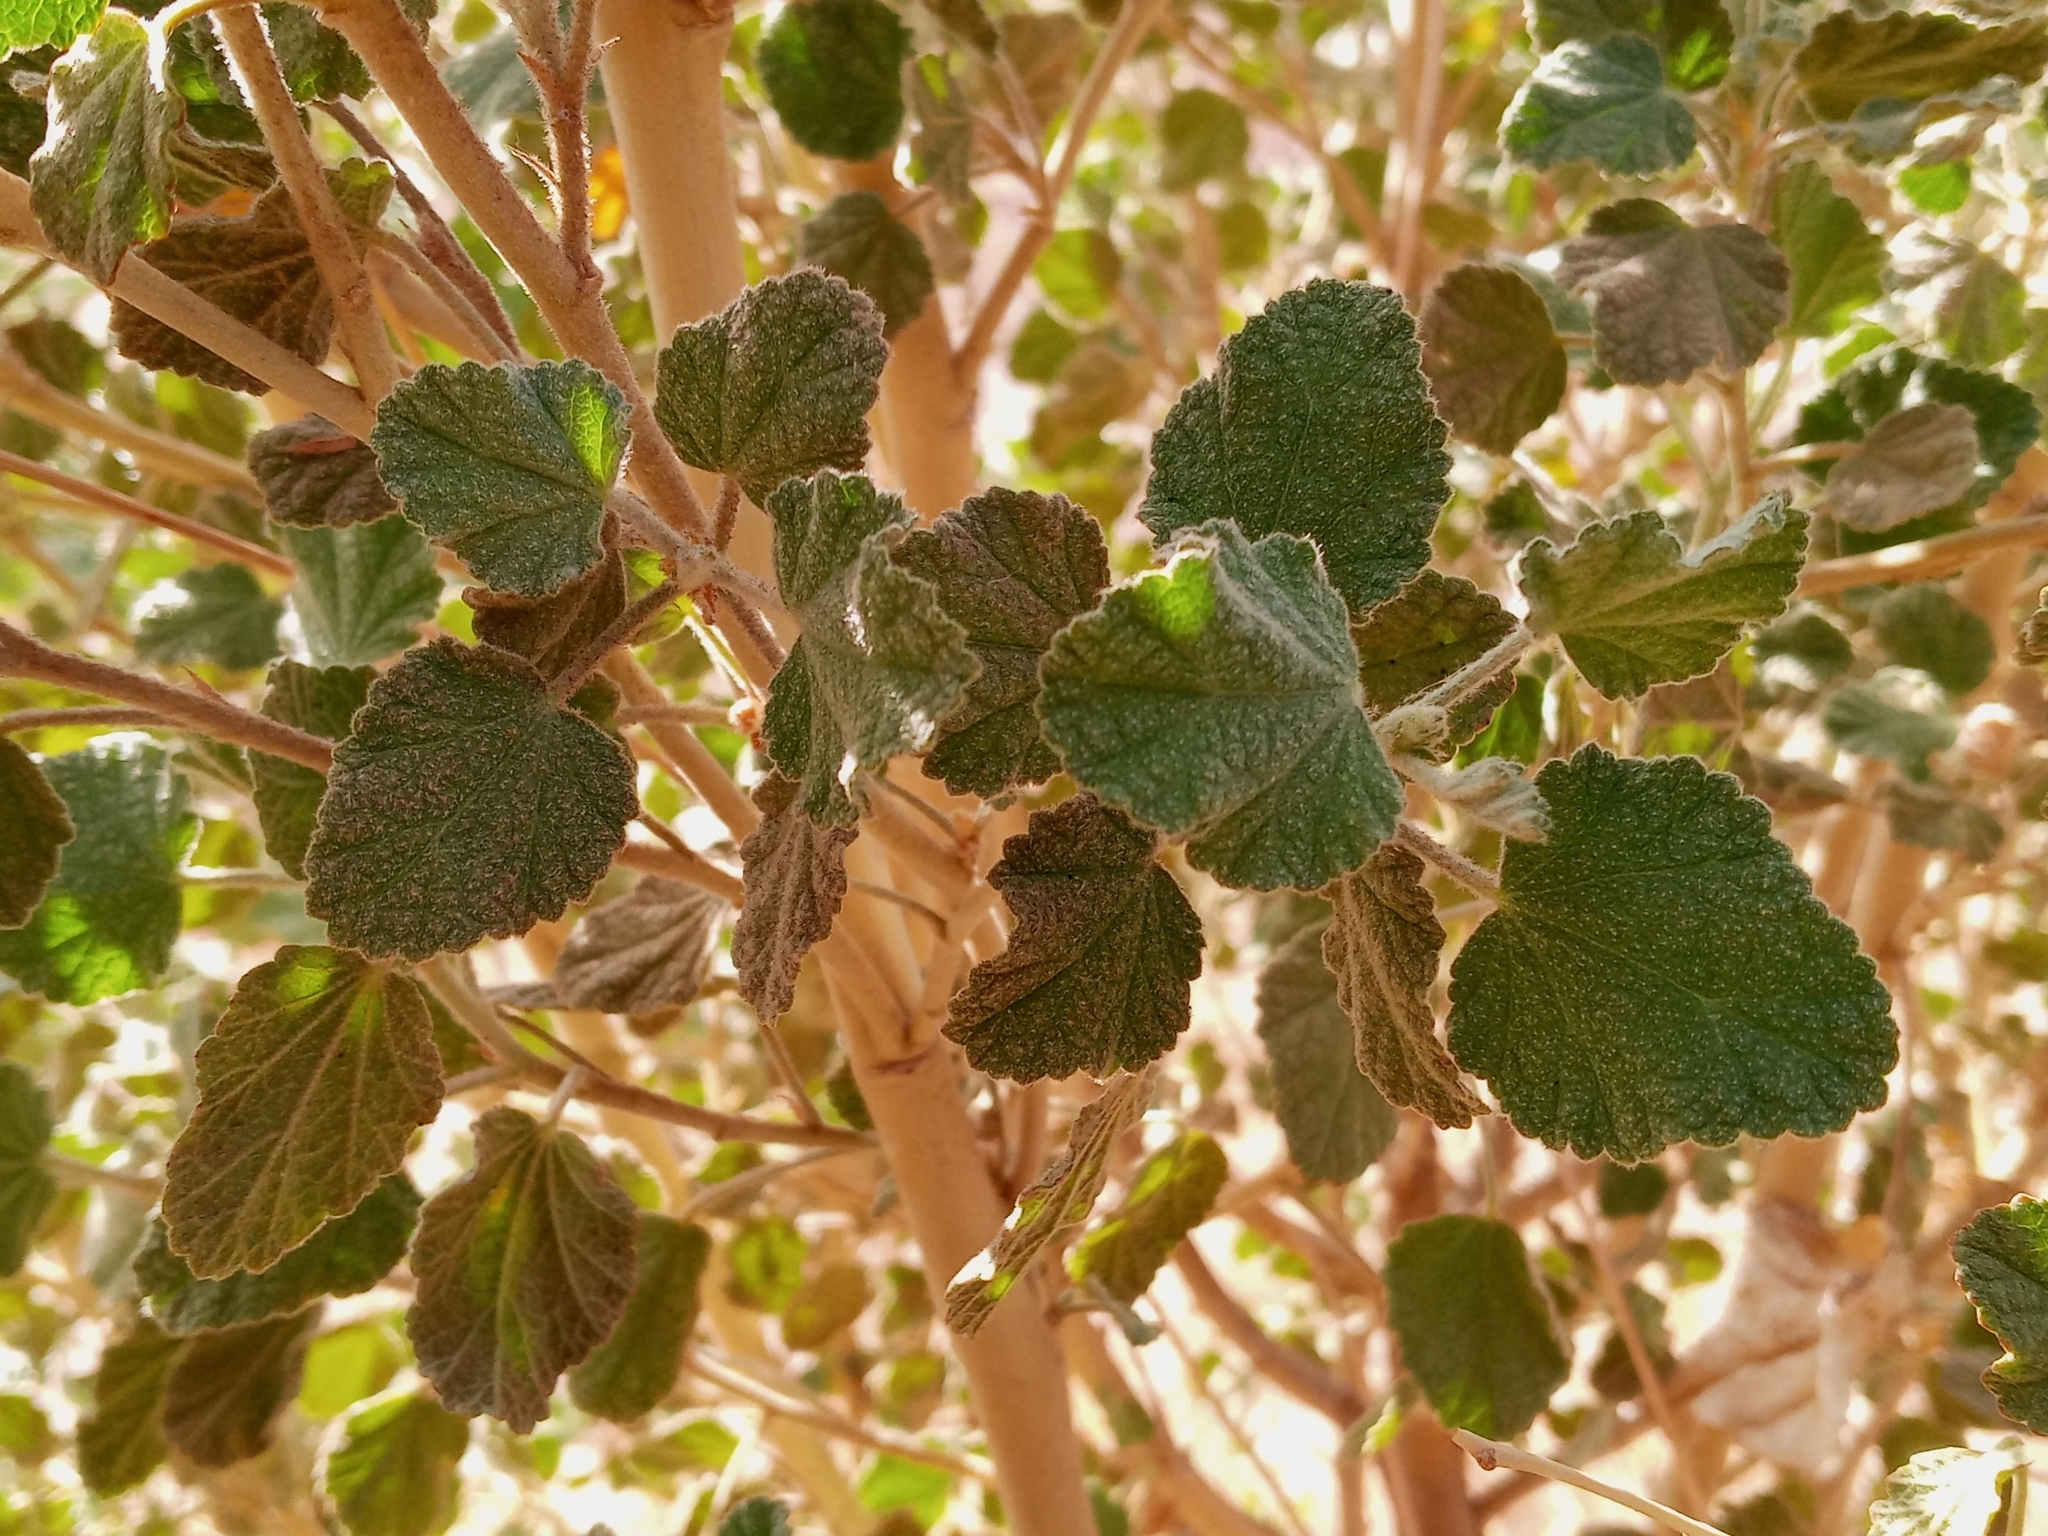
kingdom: Plantae
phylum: Tracheophyta
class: Magnoliopsida
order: Malvales
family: Malvaceae
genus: Malacothamnus
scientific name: Malacothamnus marrubioides
